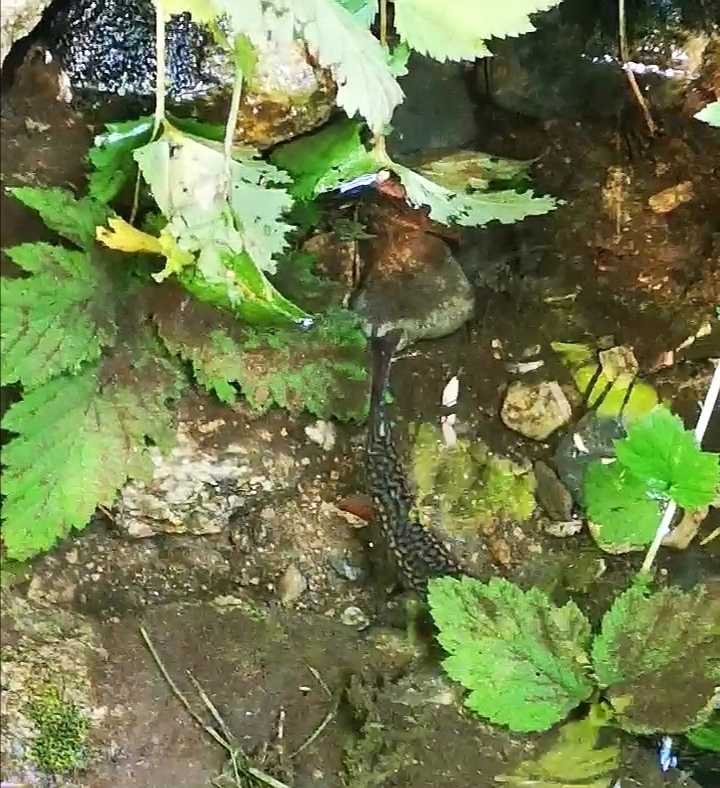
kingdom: Animalia
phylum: Chordata
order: Salmoniformes
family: Salmonidae
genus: Salvelinus
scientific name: Salvelinus fontinalis
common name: Brook trout
